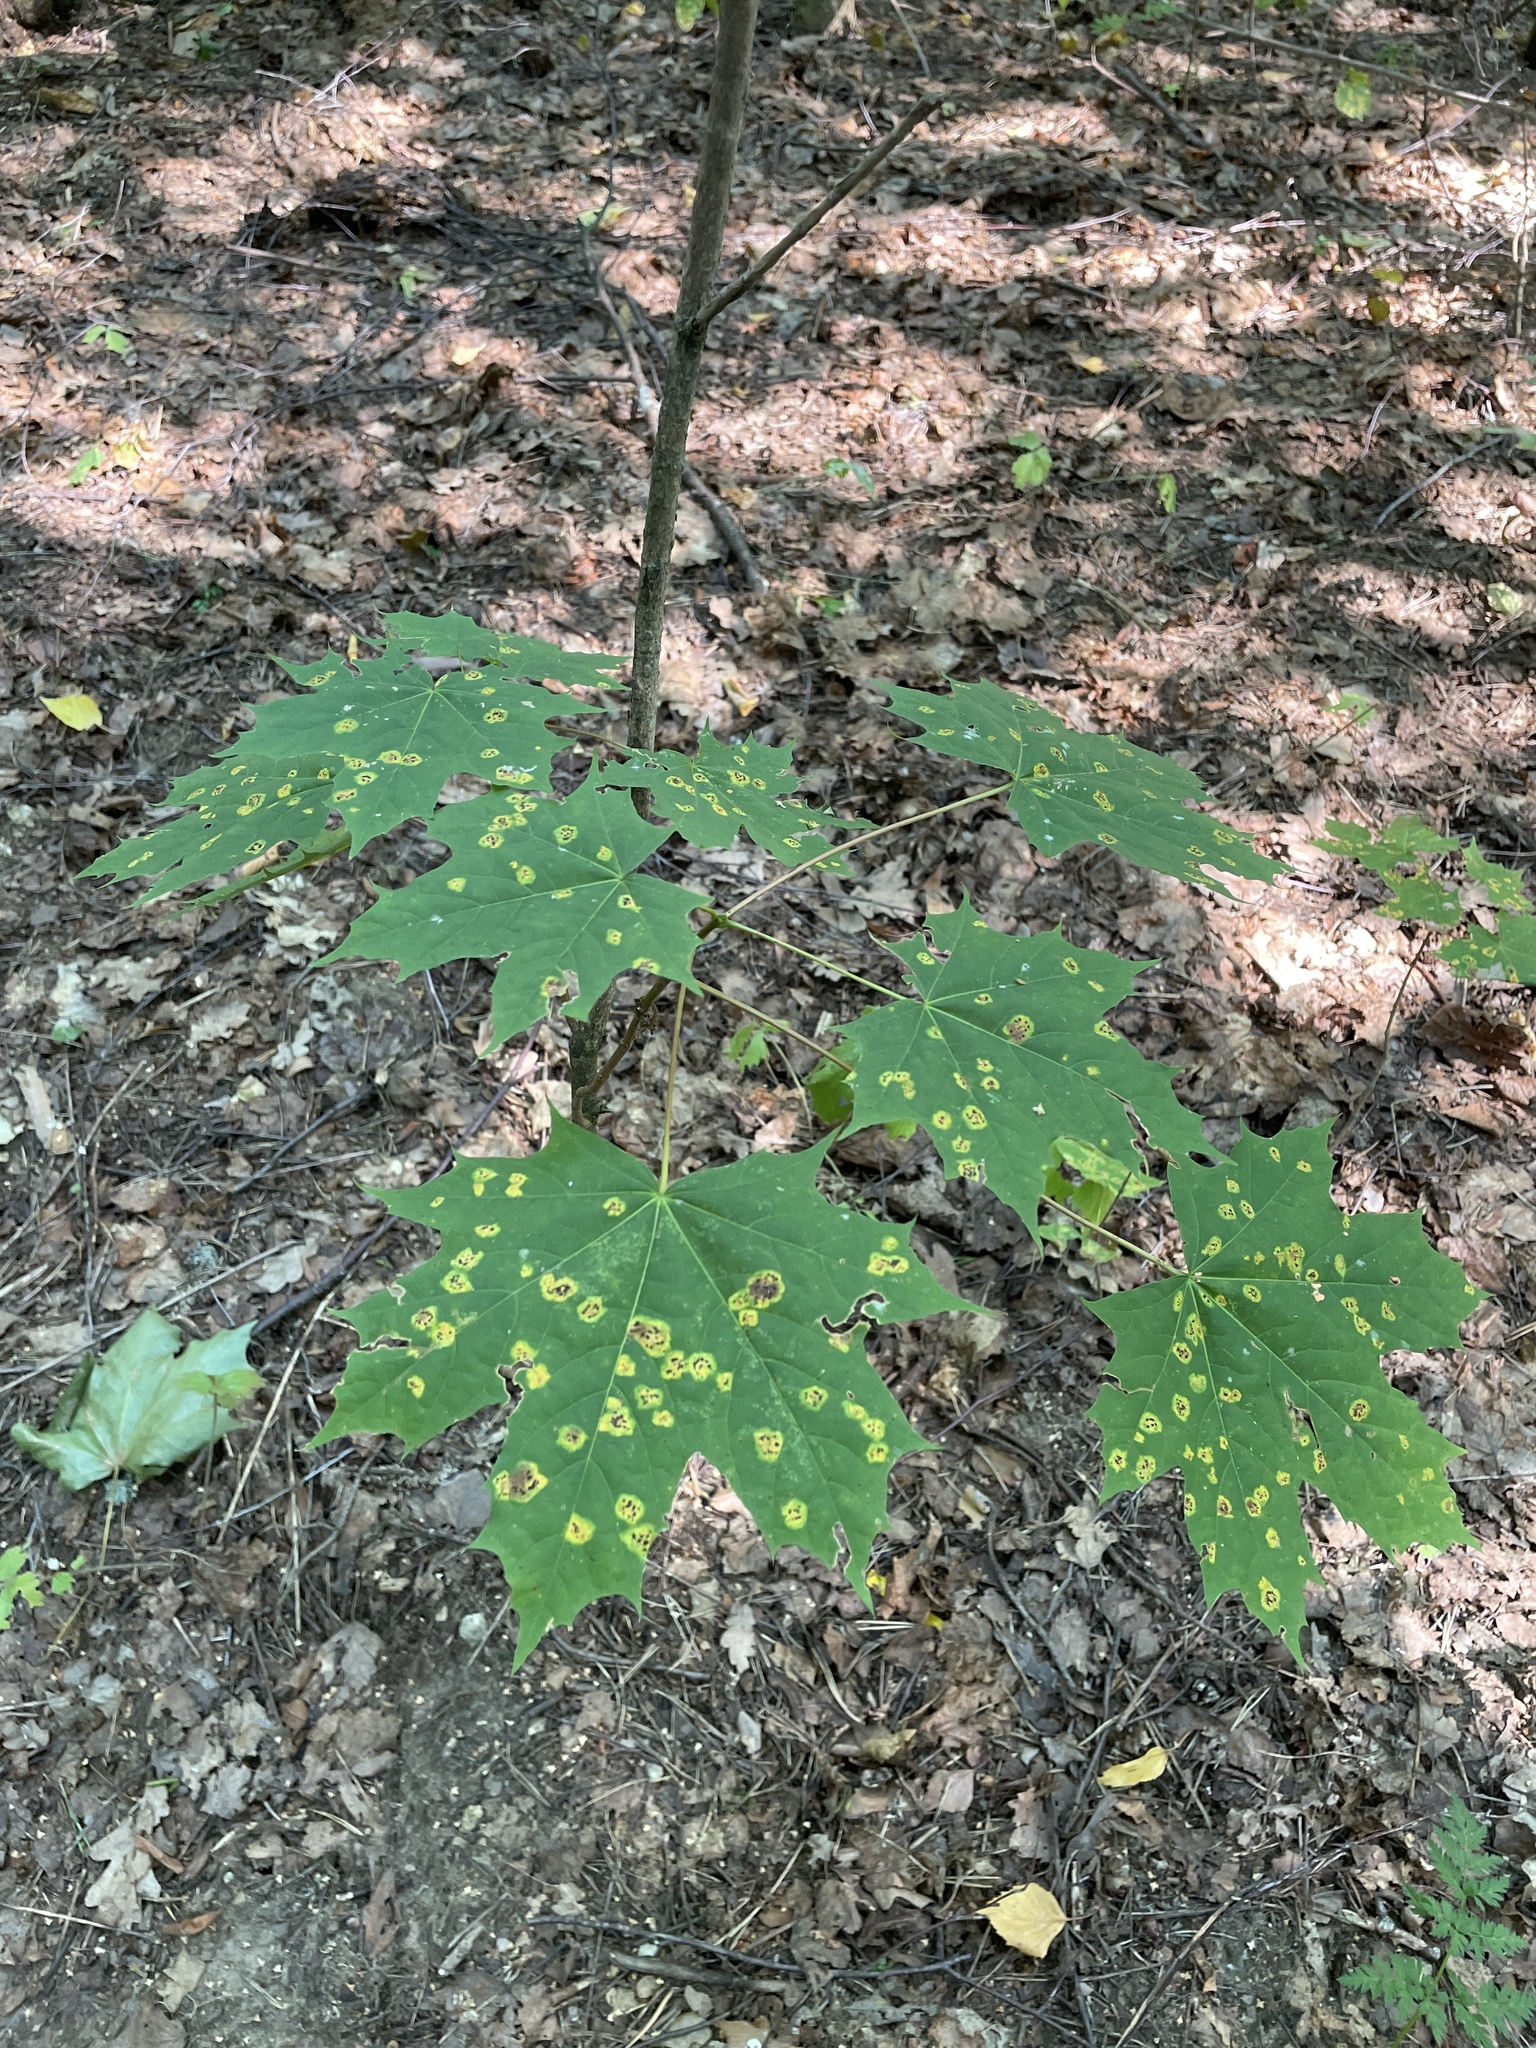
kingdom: Plantae
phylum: Tracheophyta
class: Magnoliopsida
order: Sapindales
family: Sapindaceae
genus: Acer
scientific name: Acer platanoides
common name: Norway maple
